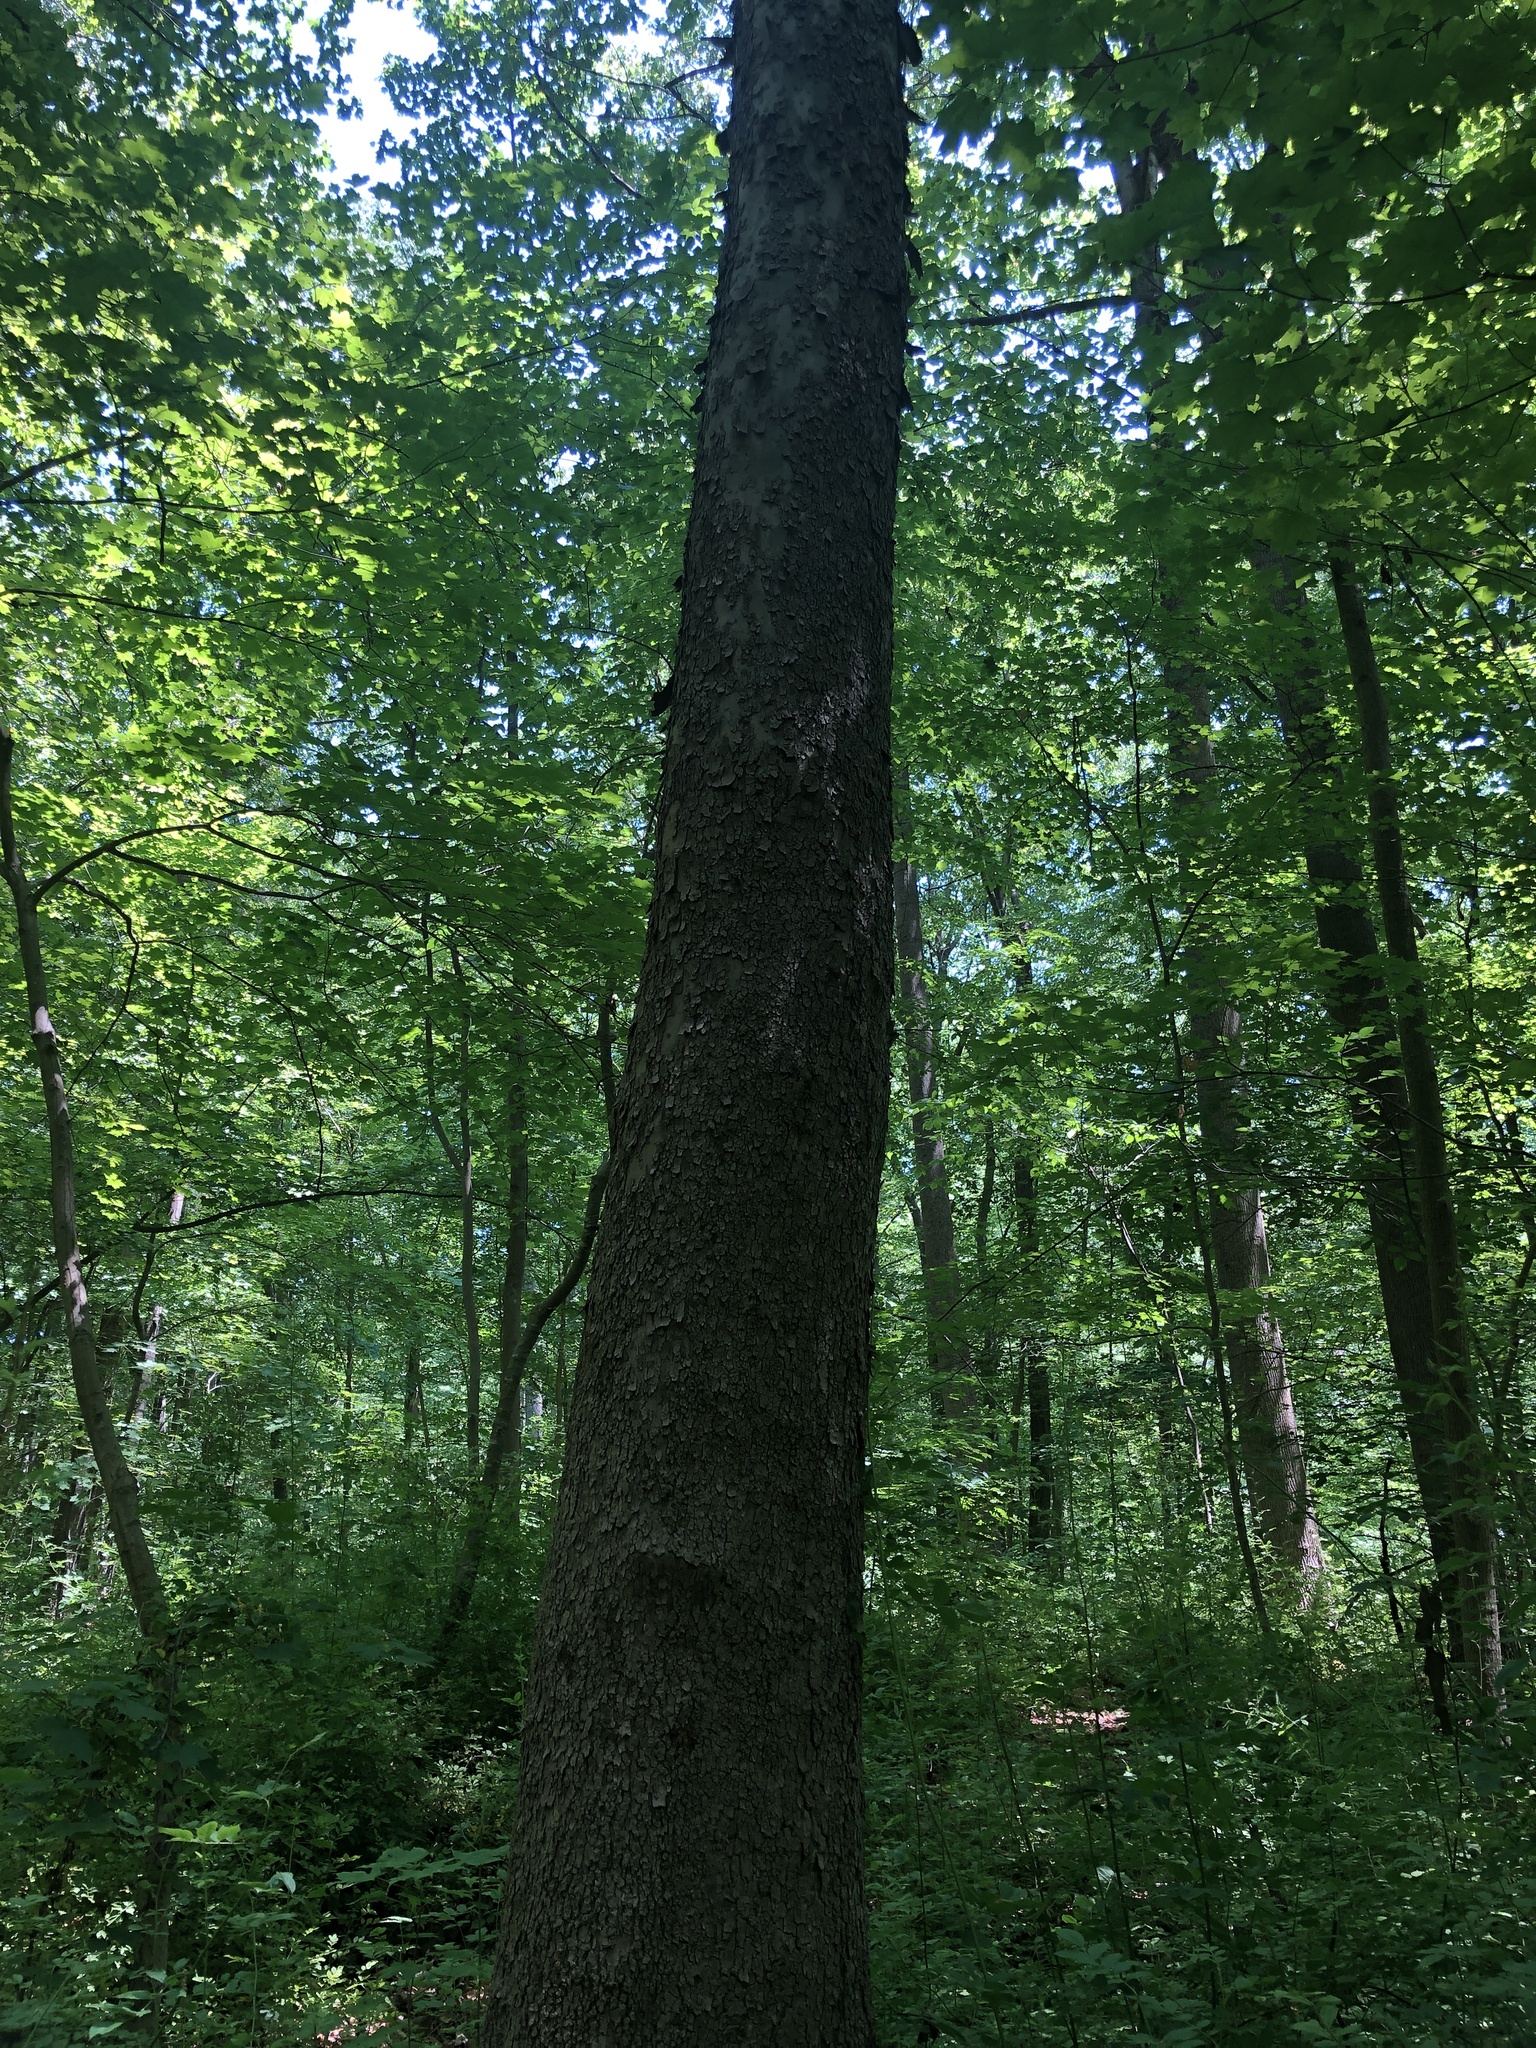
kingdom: Plantae
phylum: Tracheophyta
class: Magnoliopsida
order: Proteales
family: Platanaceae
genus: Platanus
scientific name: Platanus occidentalis
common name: American sycamore
